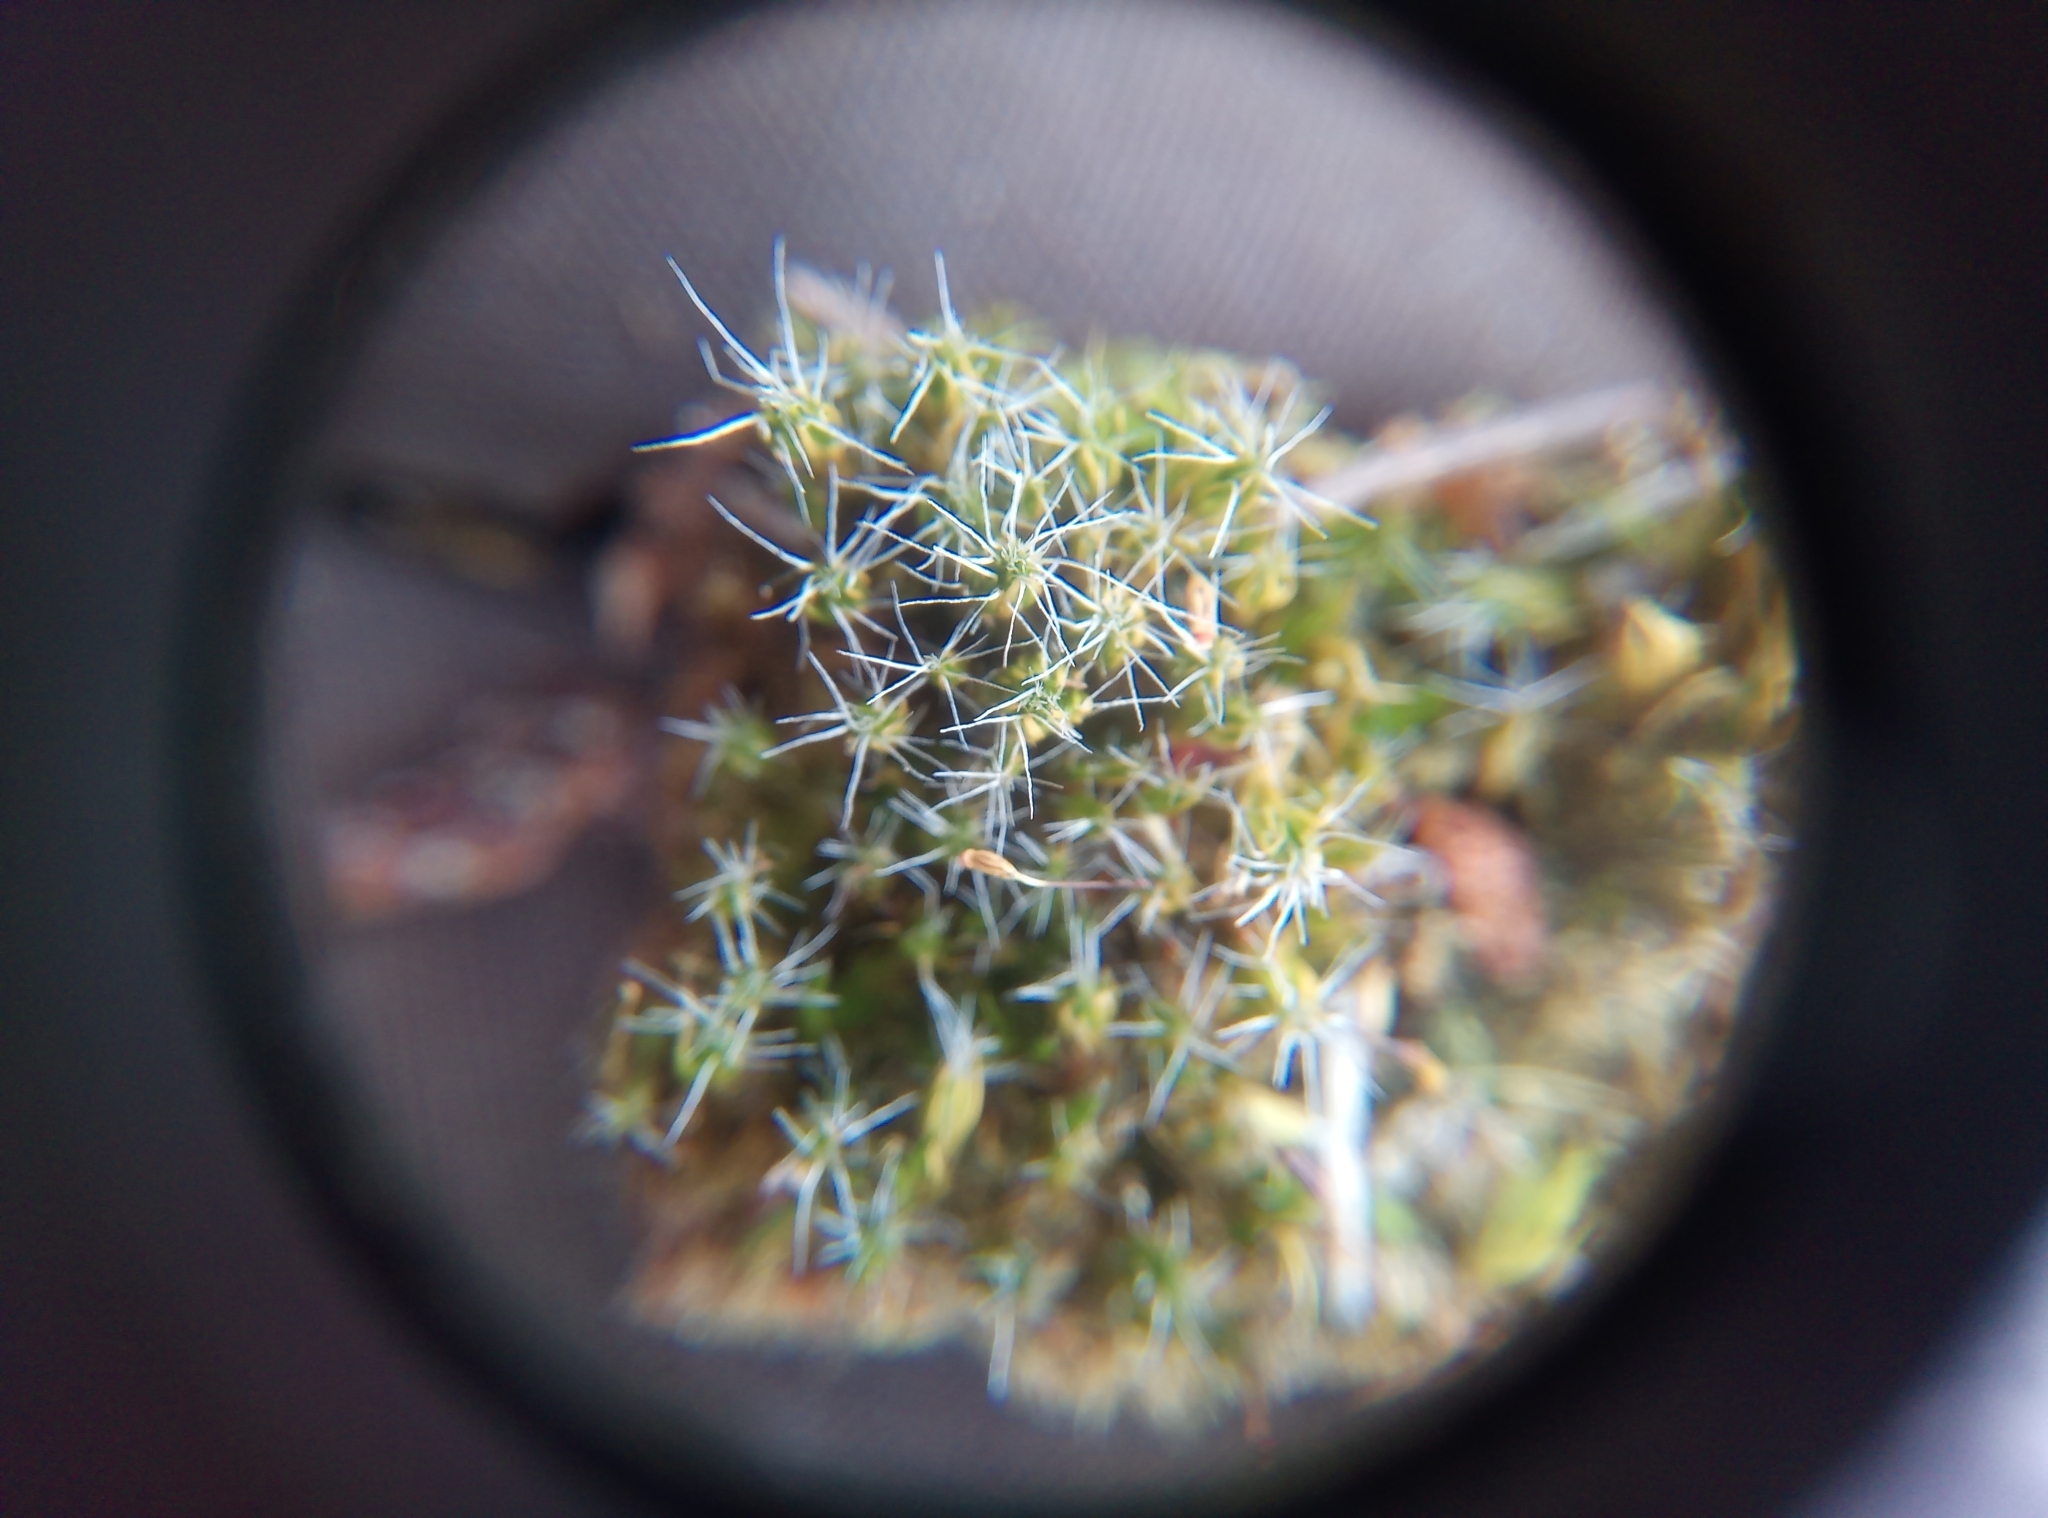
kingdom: Plantae
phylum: Bryophyta
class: Bryopsida
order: Dicranales
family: Leucobryaceae
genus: Campylopus
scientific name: Campylopus introflexus
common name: Heath star moss
